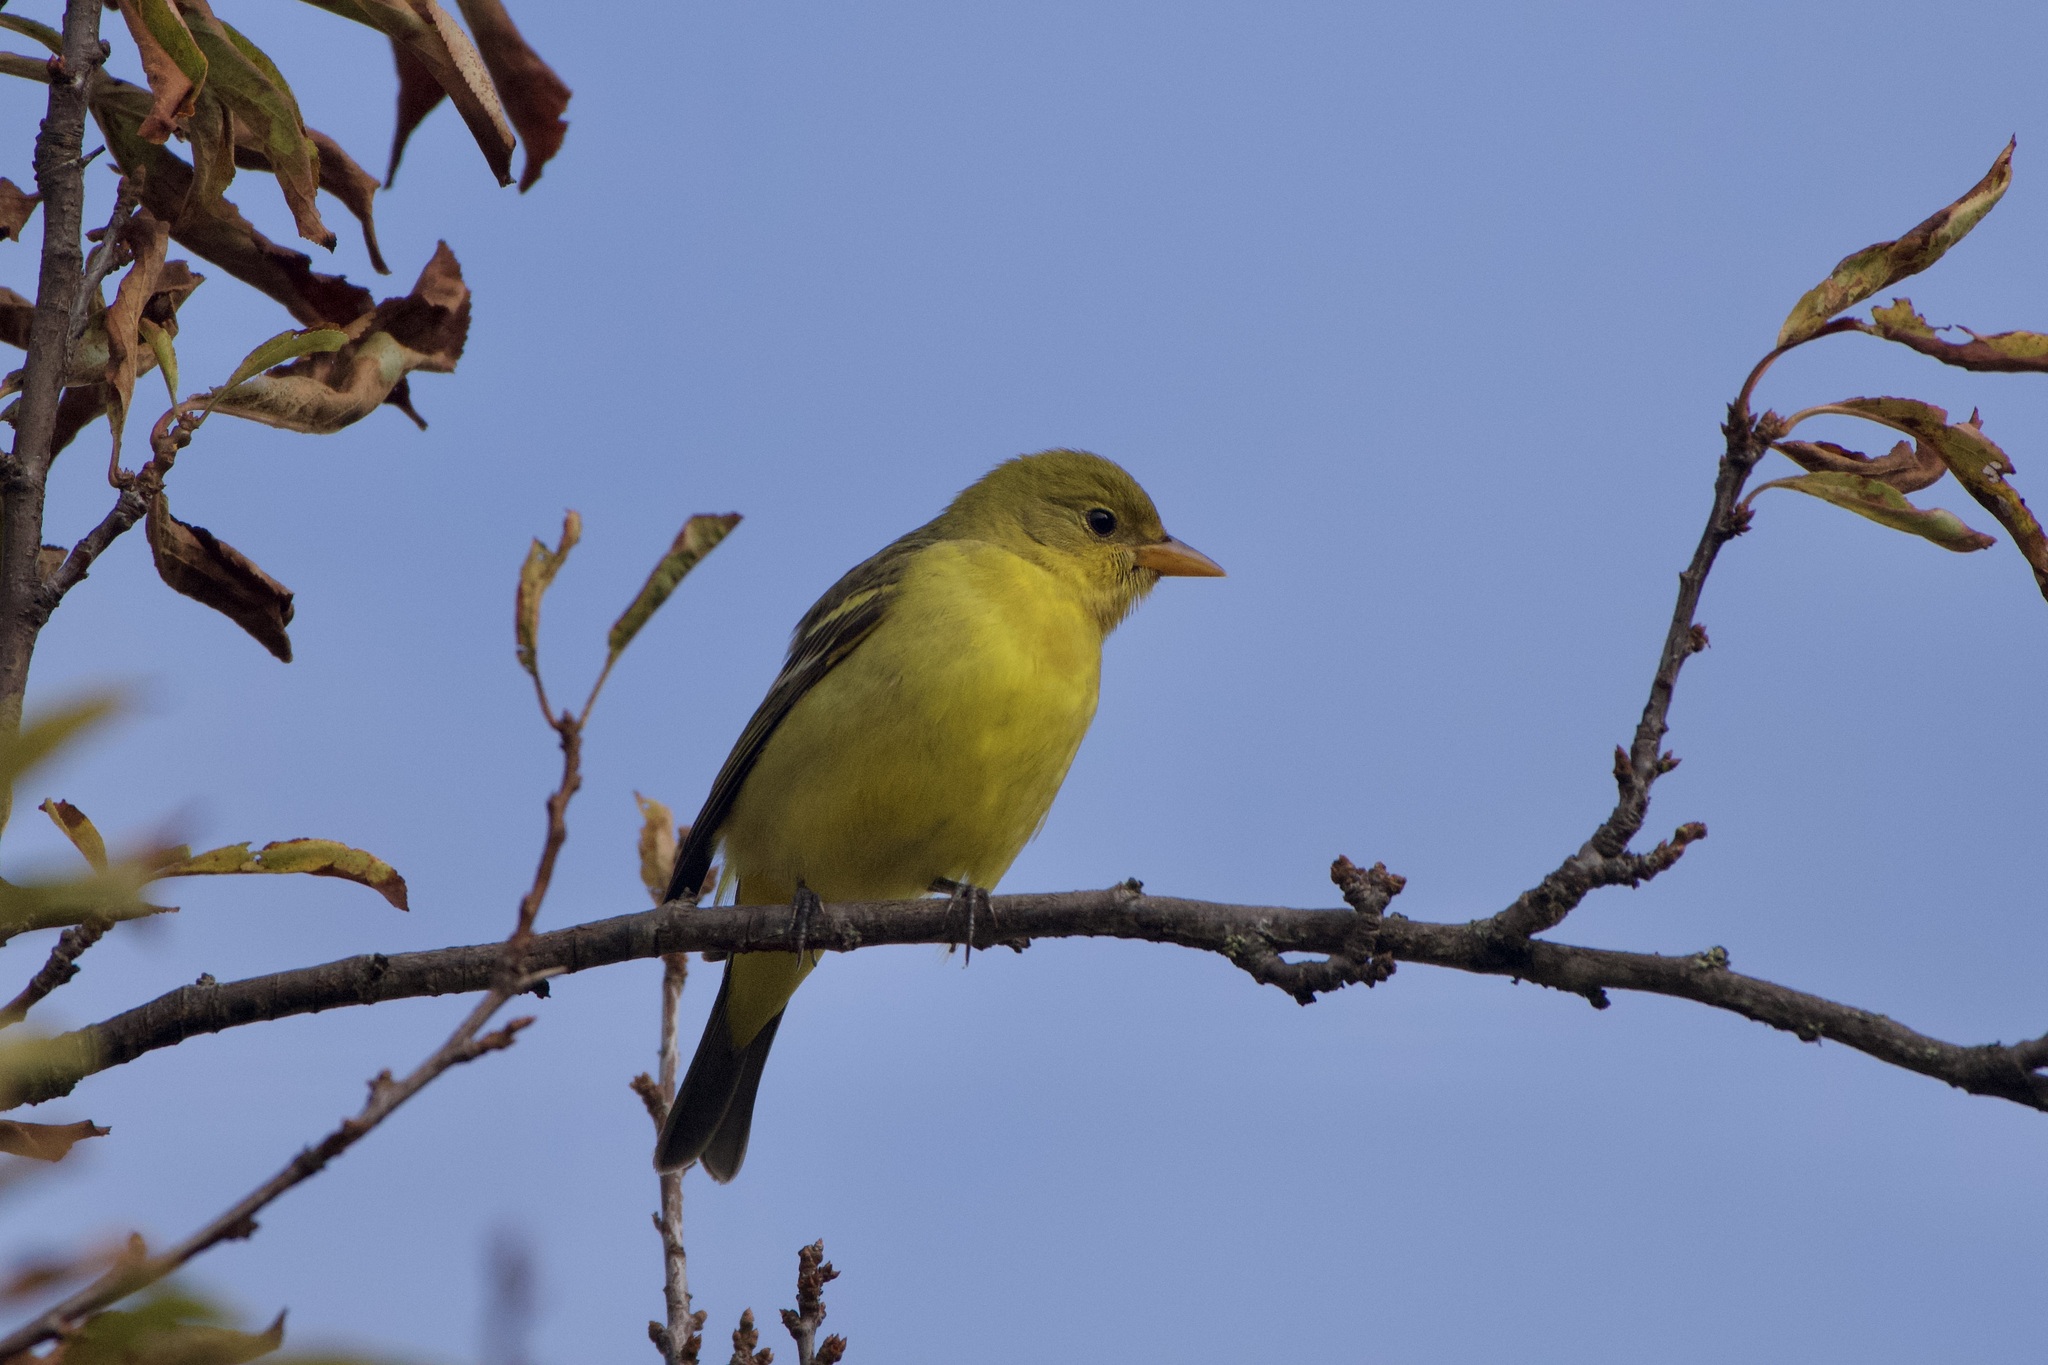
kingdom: Animalia
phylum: Chordata
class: Aves
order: Passeriformes
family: Cardinalidae
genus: Piranga
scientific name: Piranga ludoviciana
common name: Western tanager
